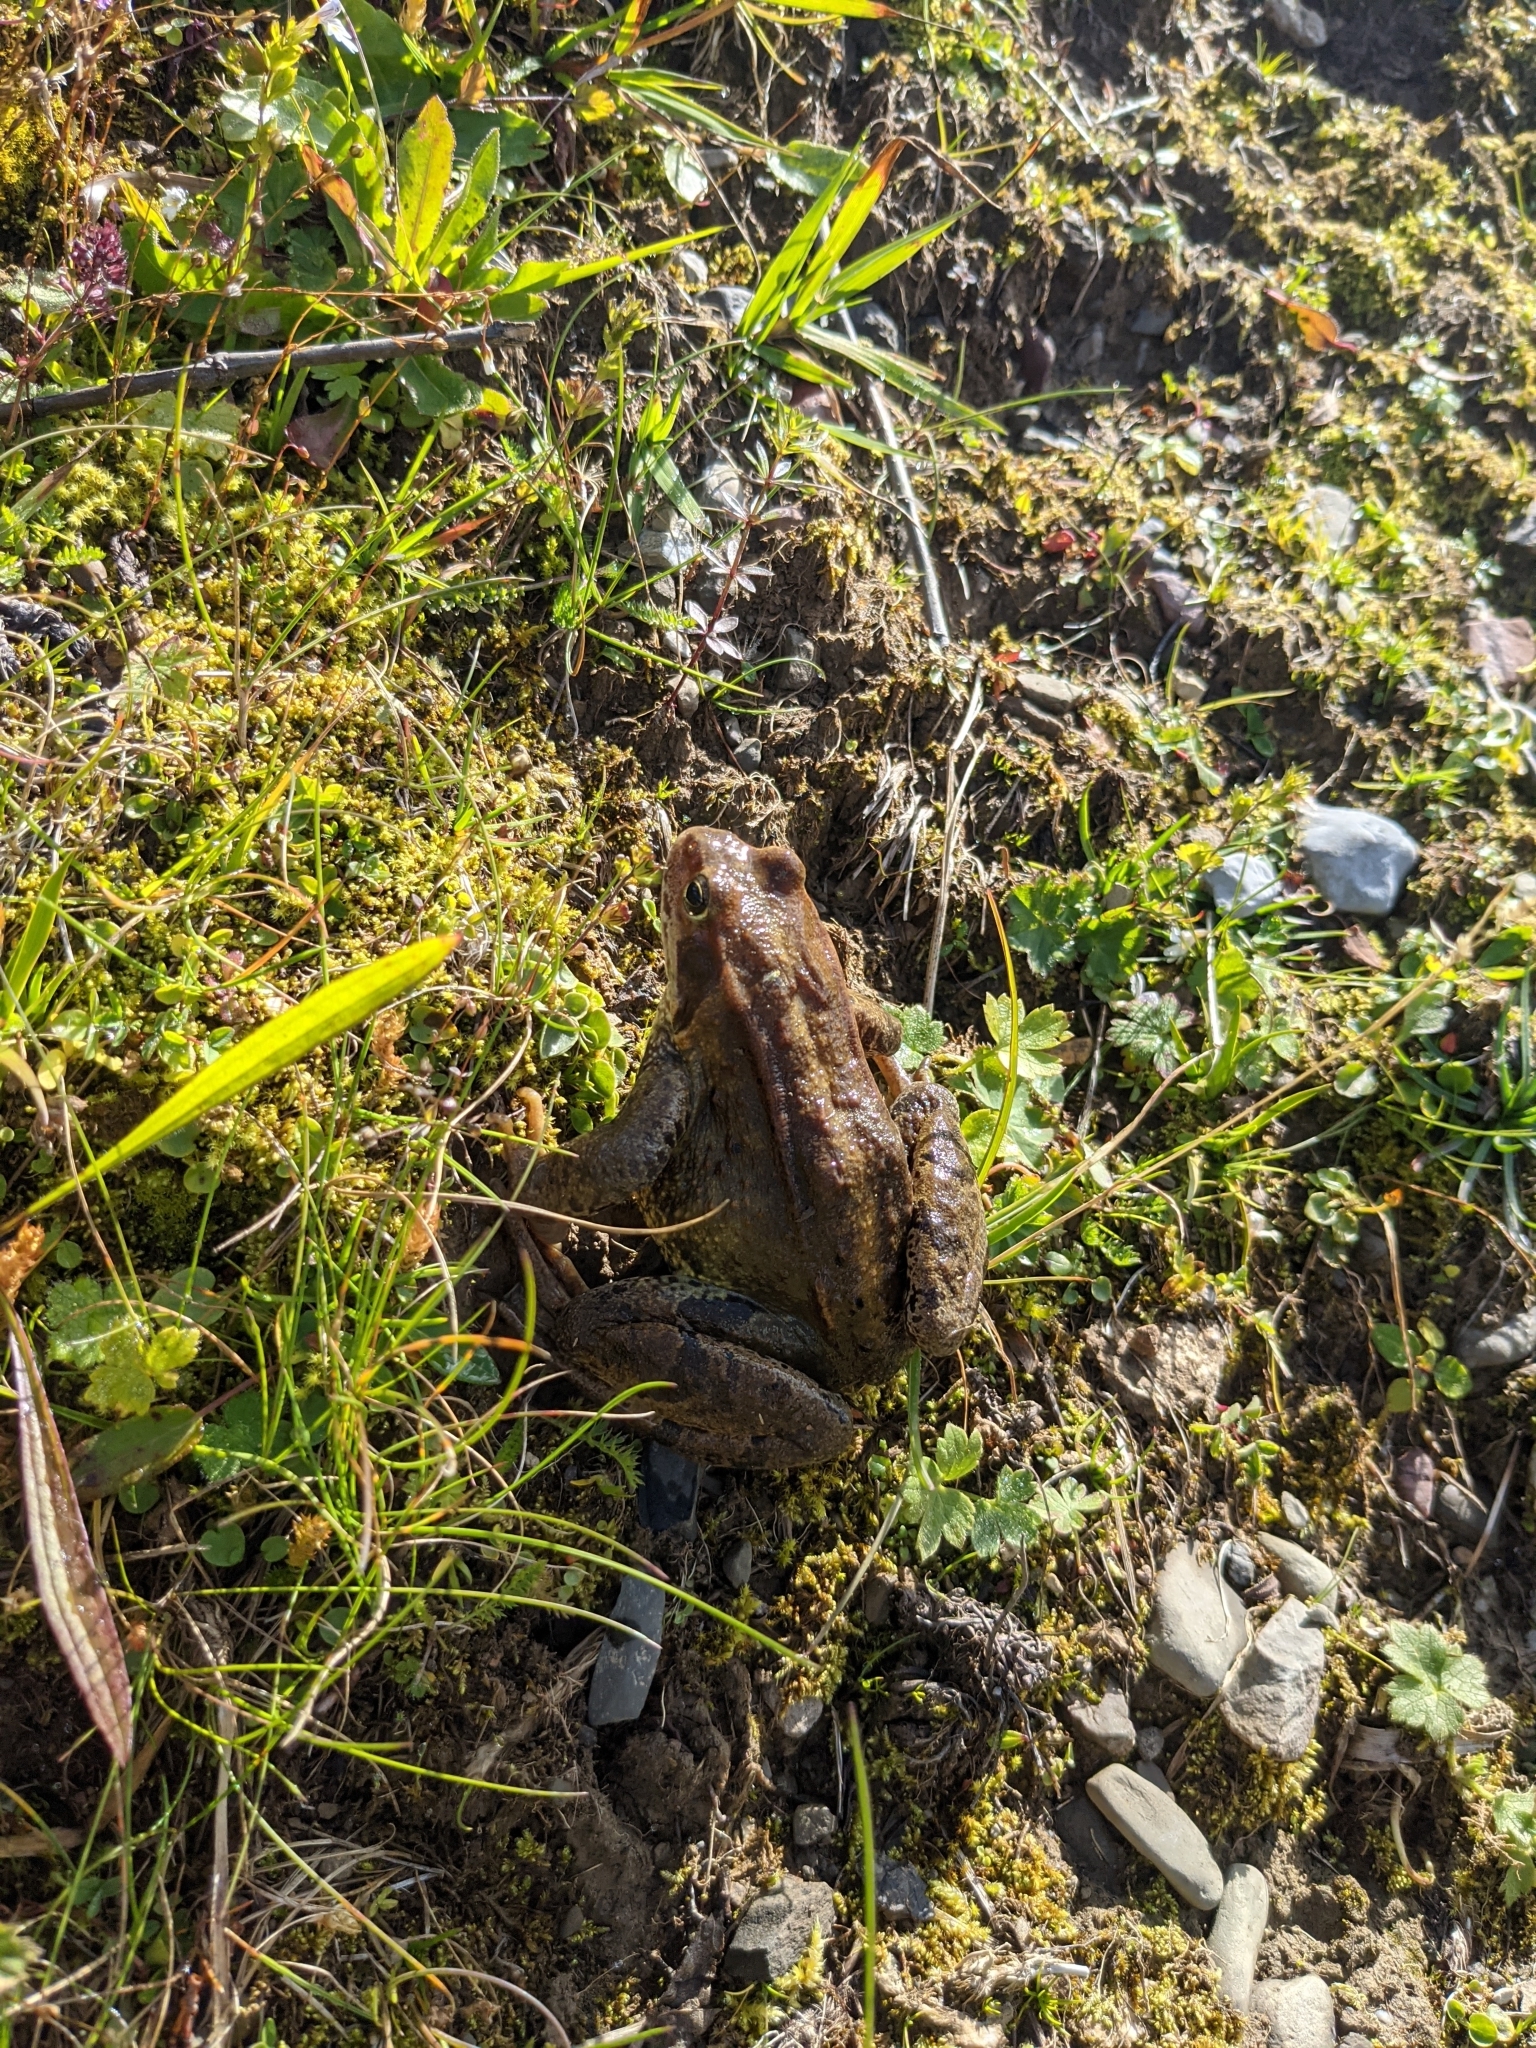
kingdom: Animalia
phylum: Chordata
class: Amphibia
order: Anura
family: Ranidae
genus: Rana
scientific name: Rana temporaria
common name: Common frog
